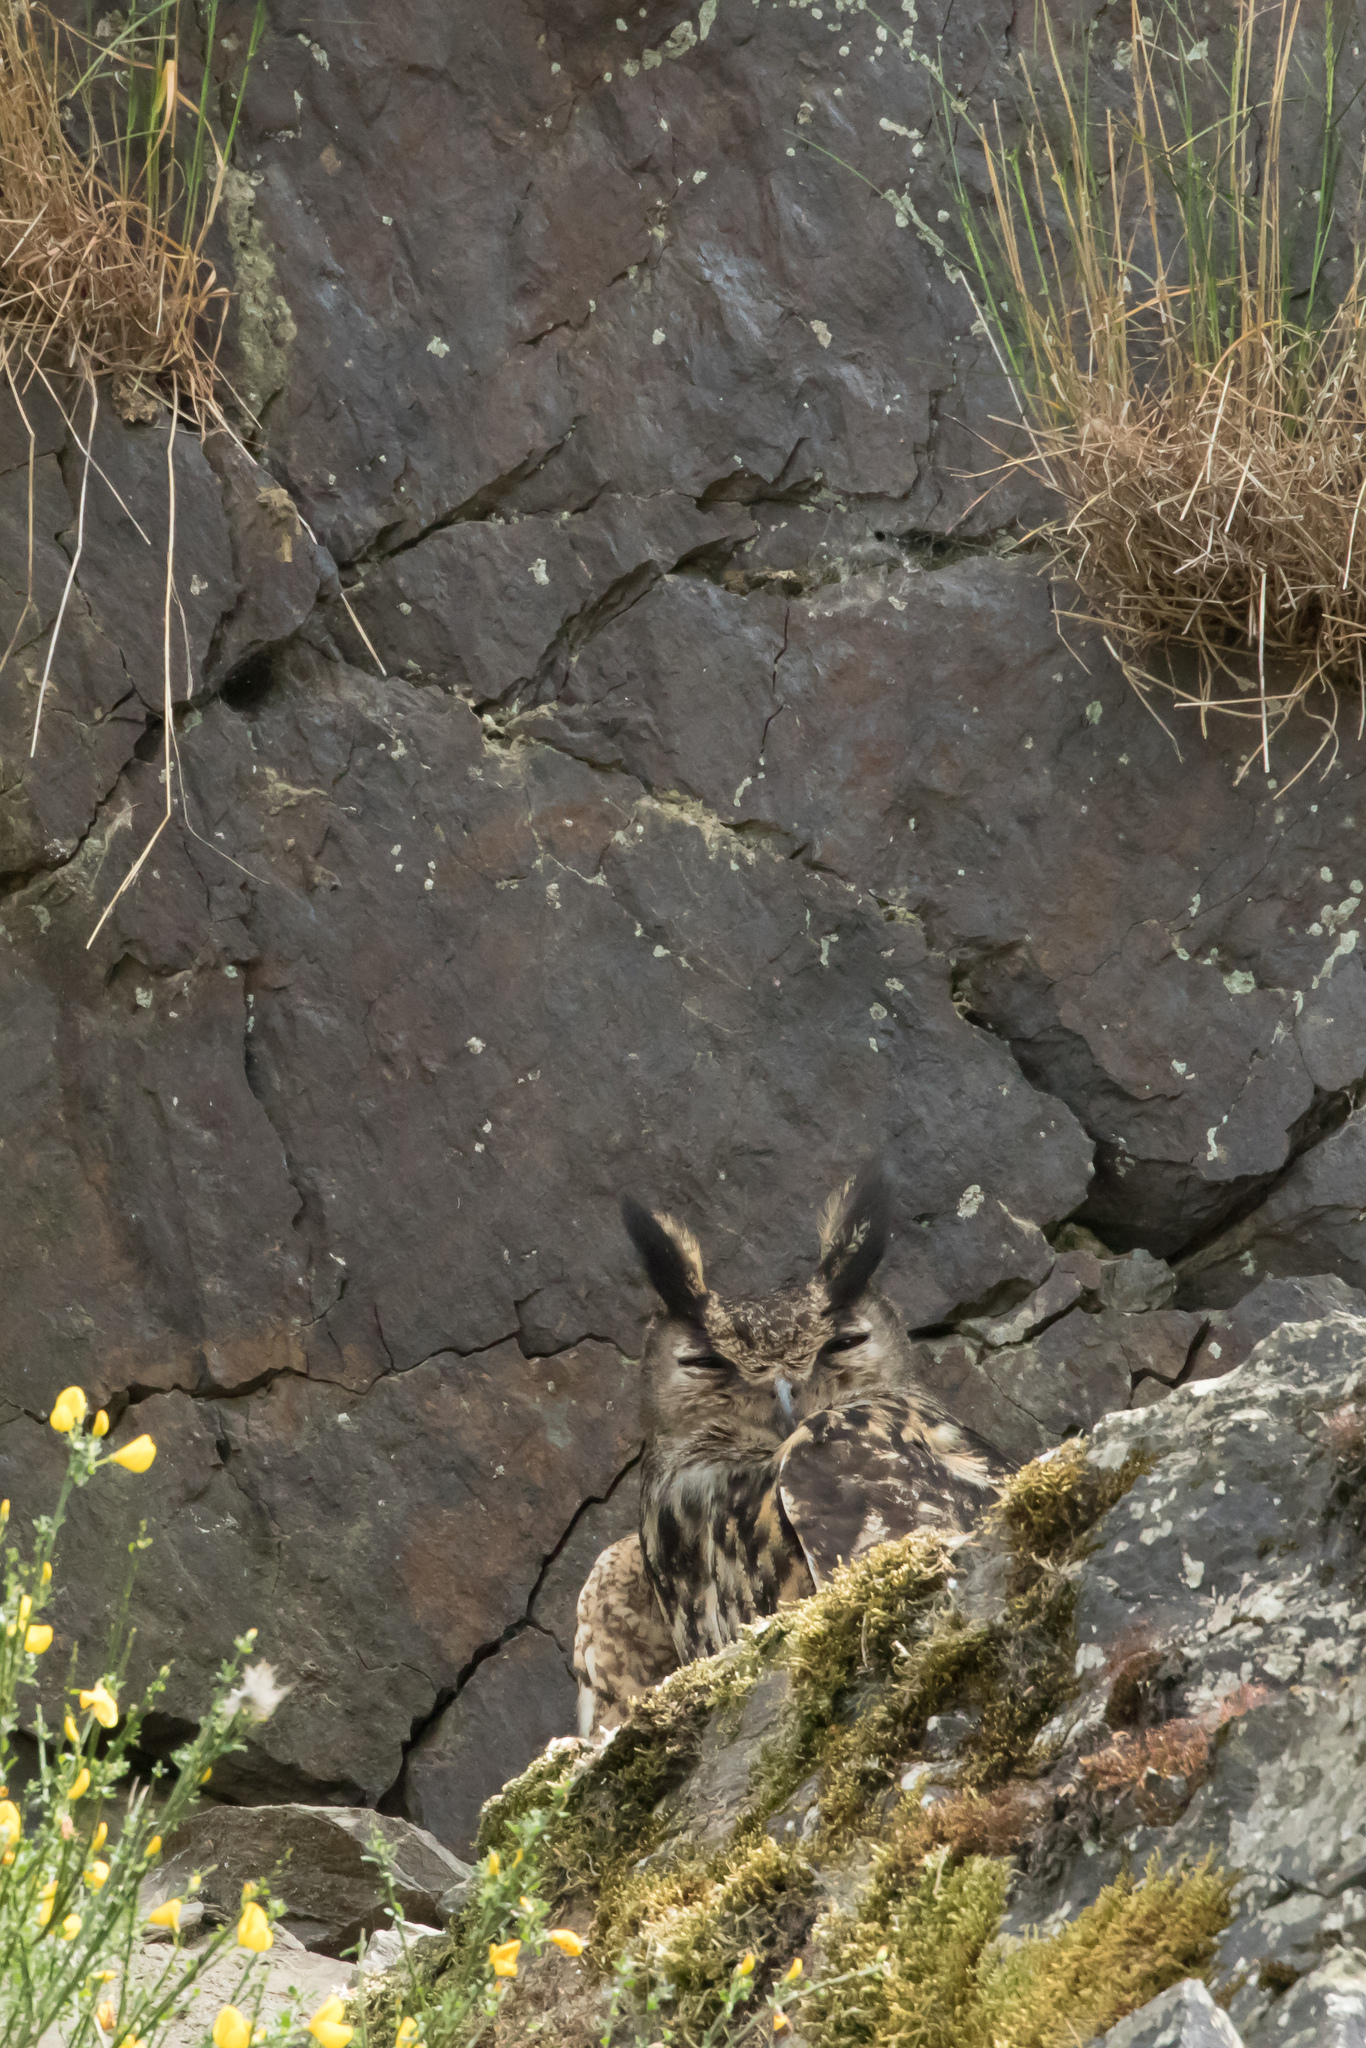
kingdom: Animalia
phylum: Chordata
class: Aves
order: Strigiformes
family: Strigidae
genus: Bubo
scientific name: Bubo bubo
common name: Eurasian eagle-owl
